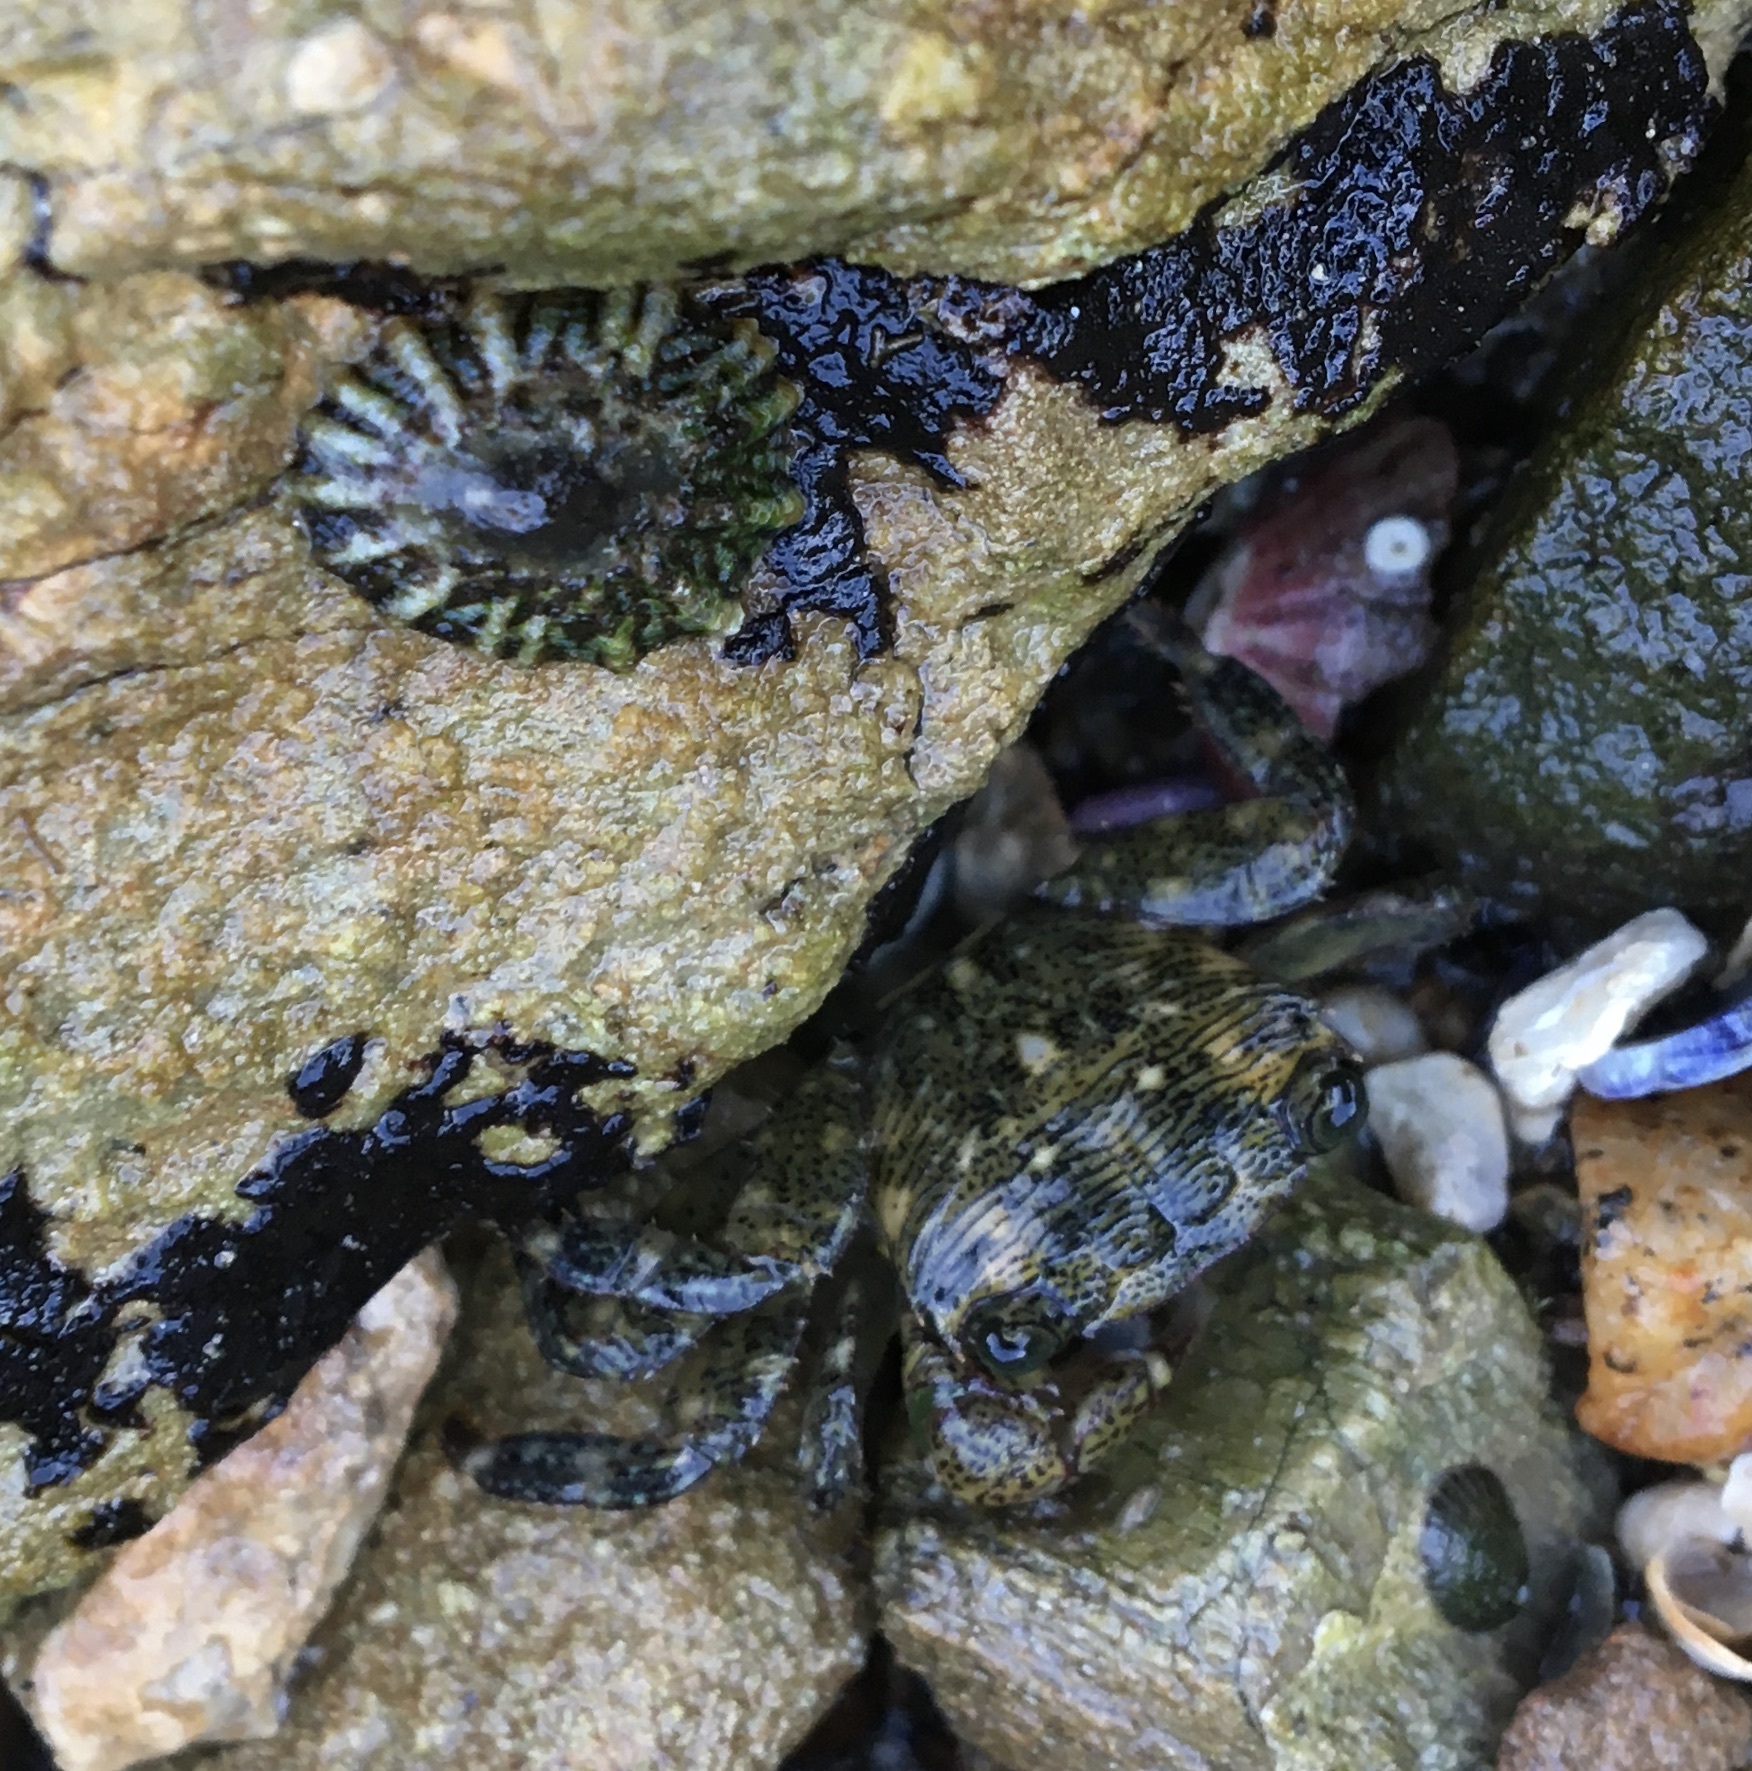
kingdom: Animalia
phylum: Arthropoda
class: Malacostraca
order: Decapoda
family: Grapsidae
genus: Pachygrapsus
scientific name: Pachygrapsus crassipes
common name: Striped shore crab
